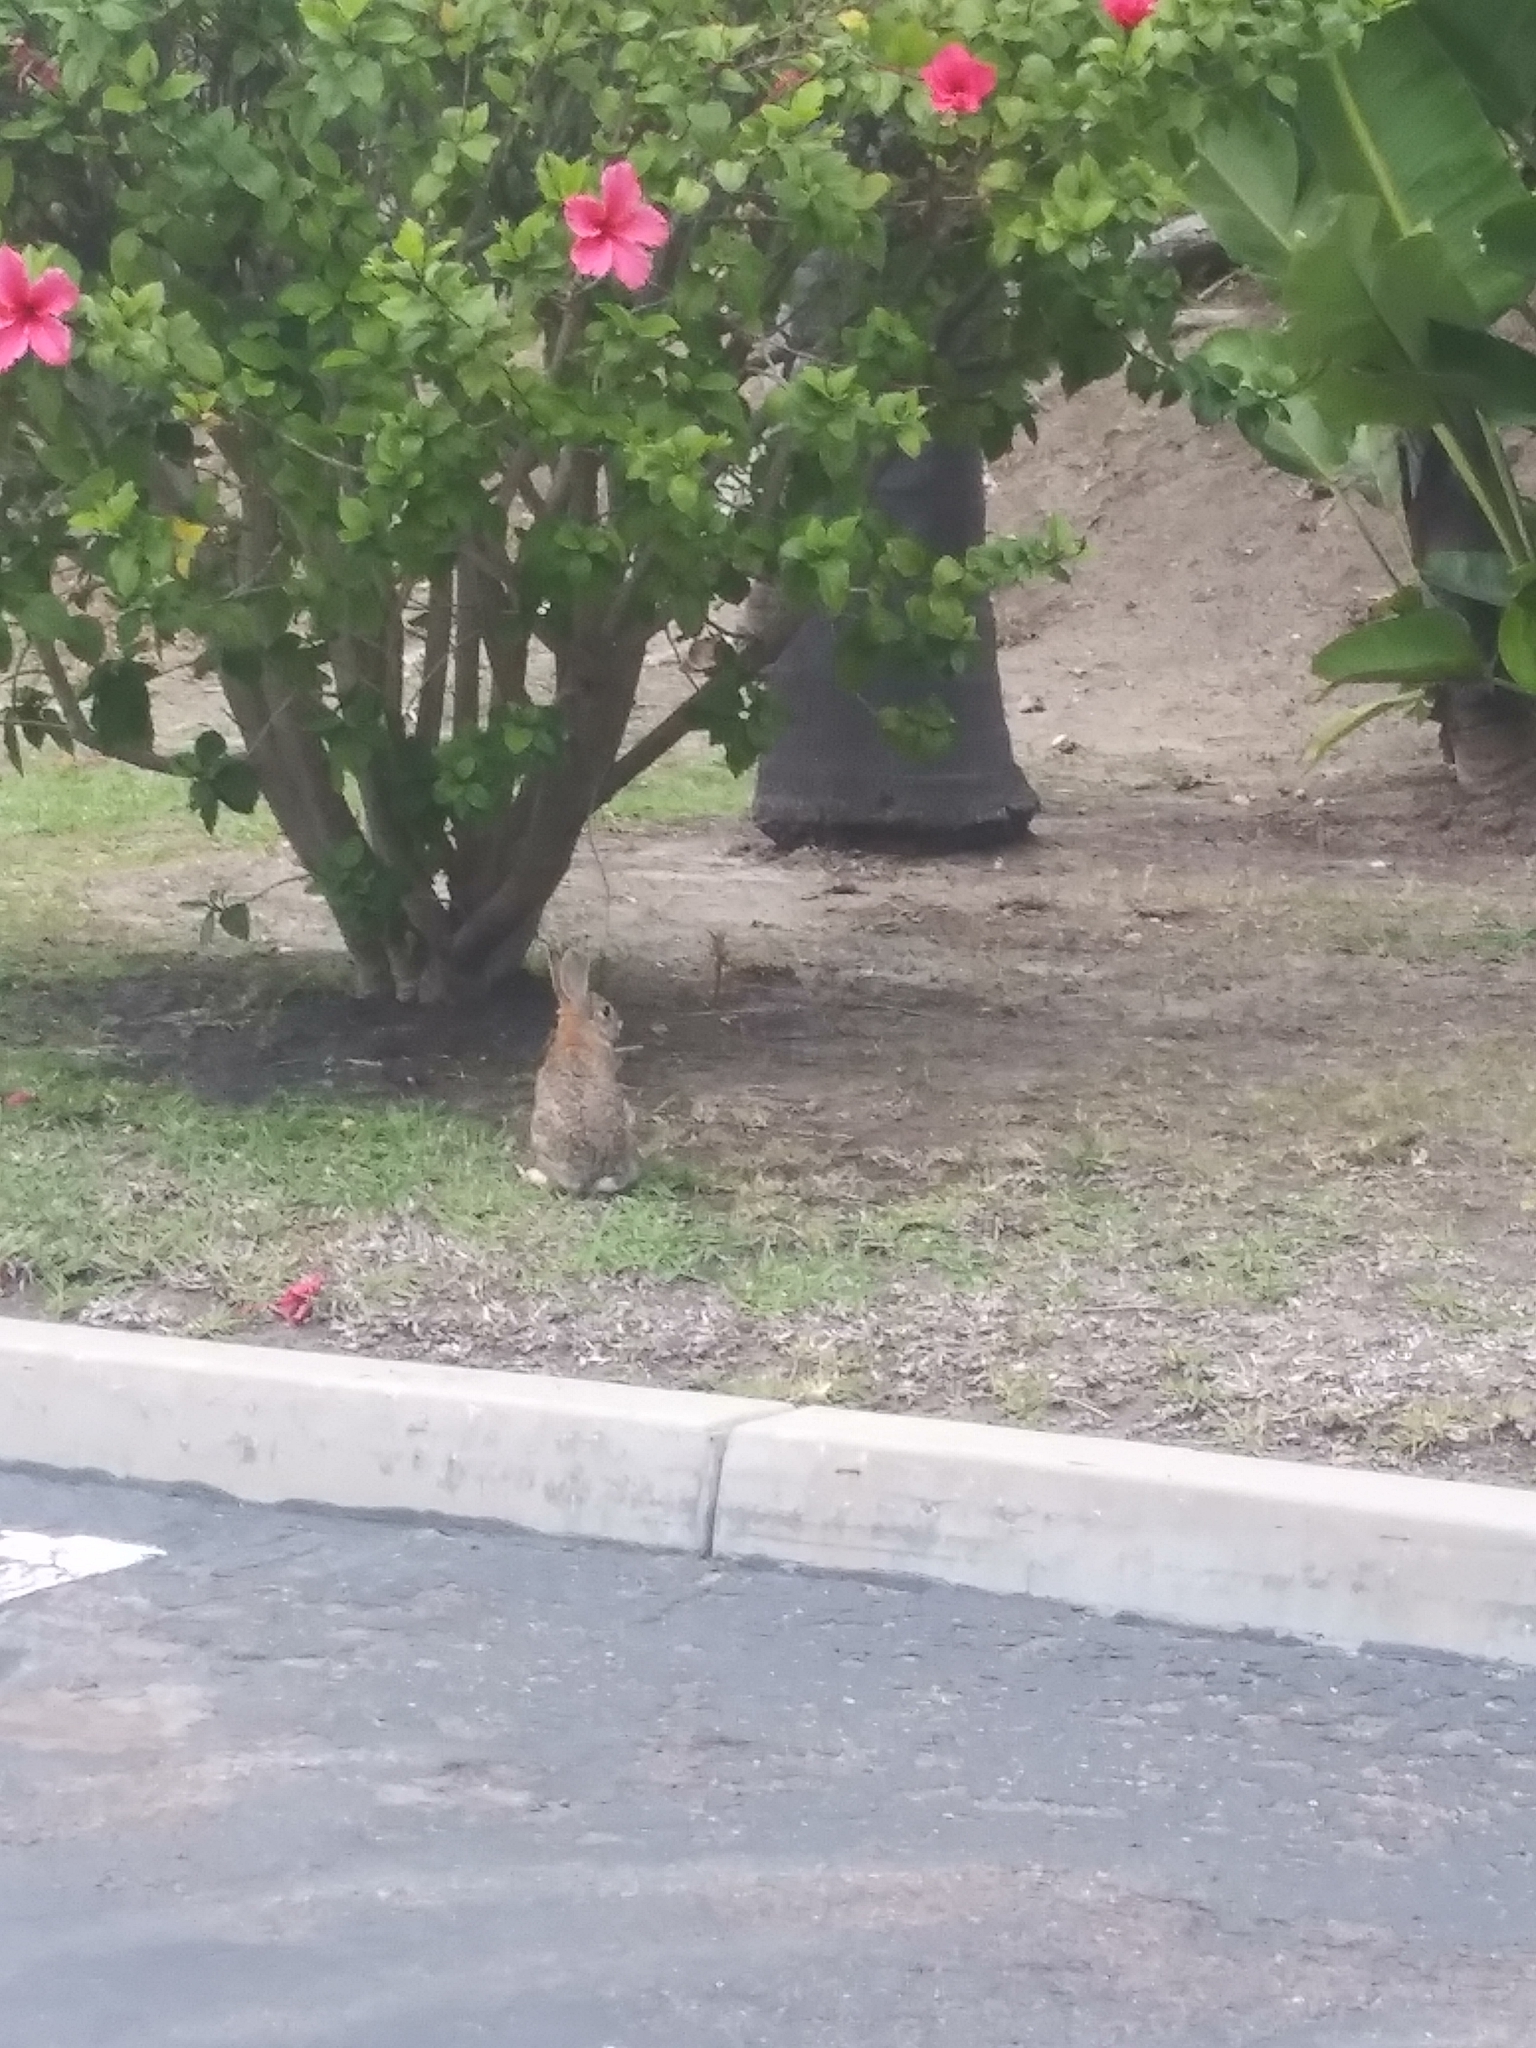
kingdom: Animalia
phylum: Chordata
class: Mammalia
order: Lagomorpha
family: Leporidae
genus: Sylvilagus
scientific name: Sylvilagus audubonii
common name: Desert cottontail
